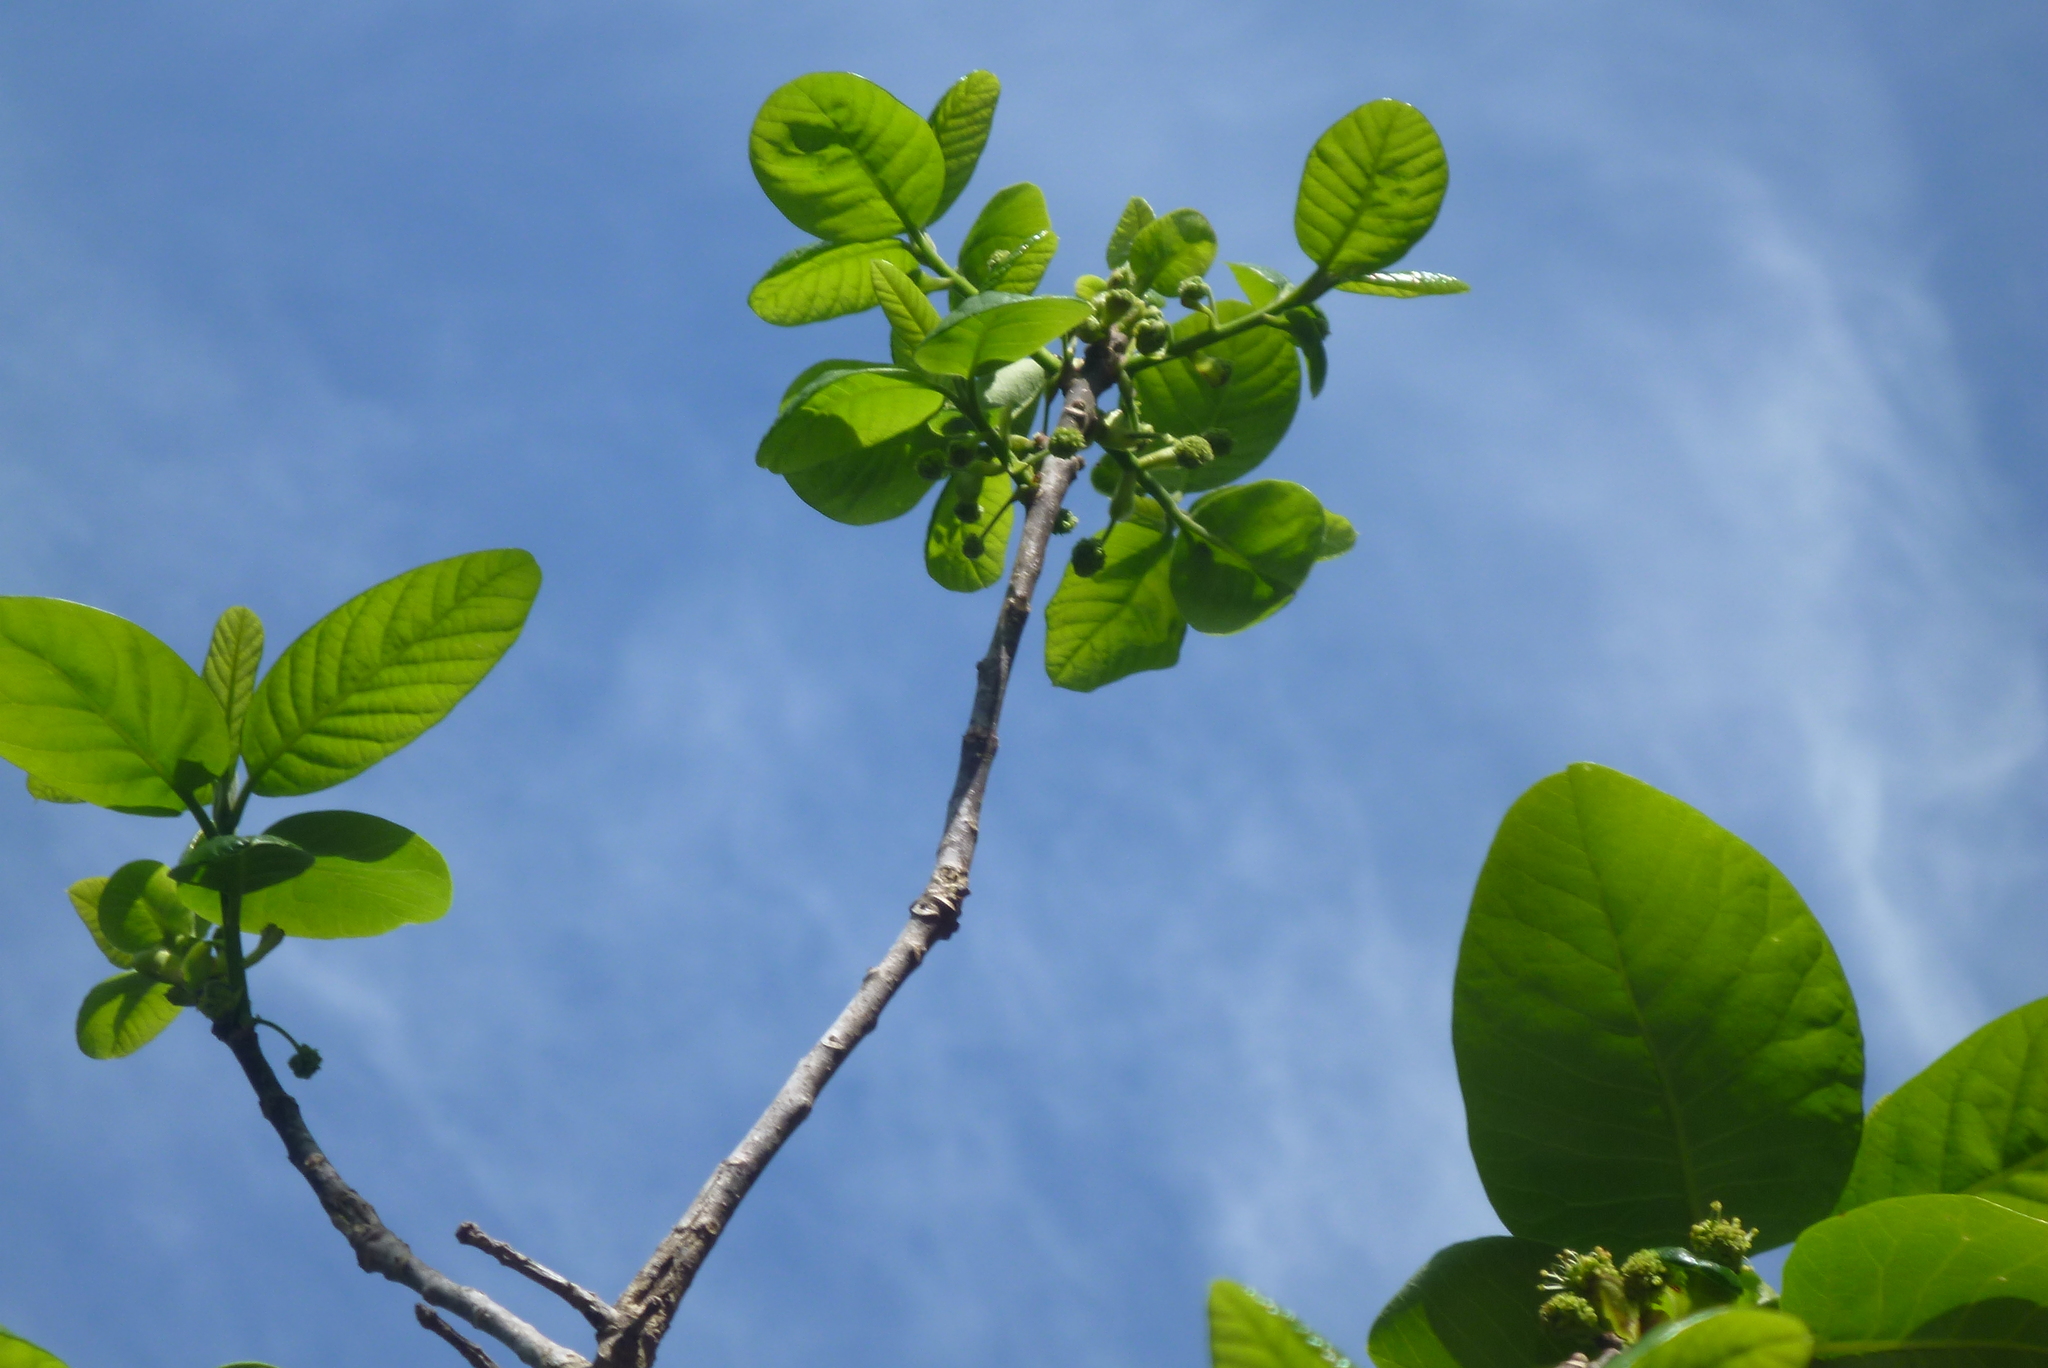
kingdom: Plantae
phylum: Tracheophyta
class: Magnoliopsida
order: Cornales
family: Nyssaceae
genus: Nyssa
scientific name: Nyssa ogeche
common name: Ogeechee tupelo
